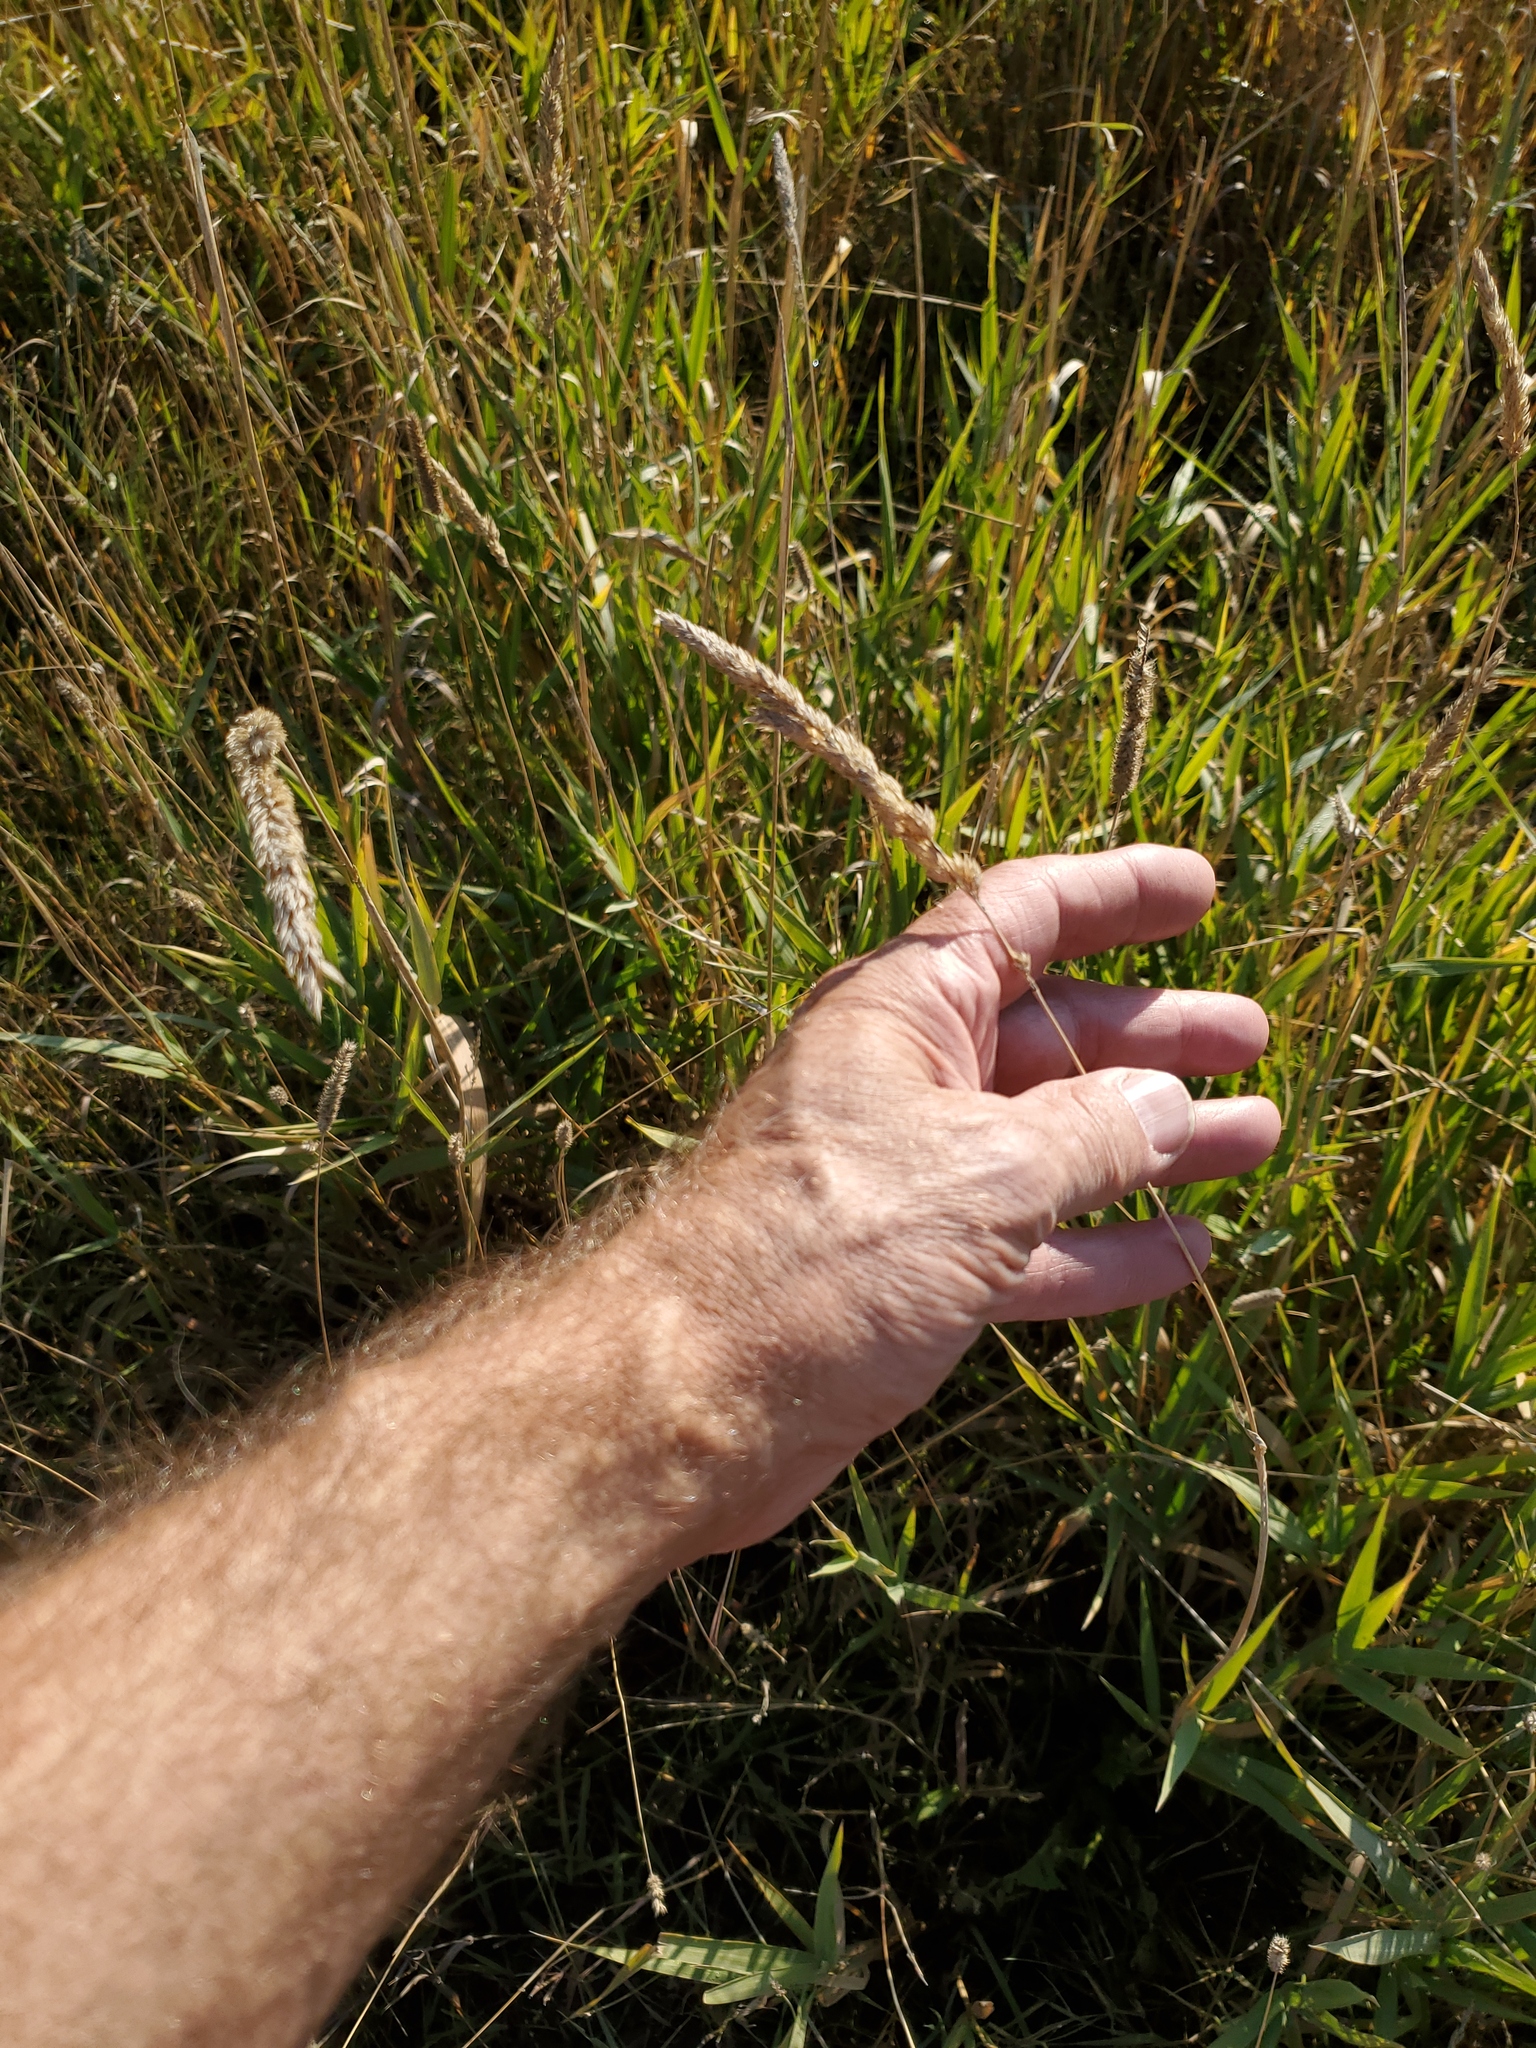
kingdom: Plantae
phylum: Tracheophyta
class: Liliopsida
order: Poales
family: Poaceae
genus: Phalaris
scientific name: Phalaris arundinacea
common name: Reed canary-grass
